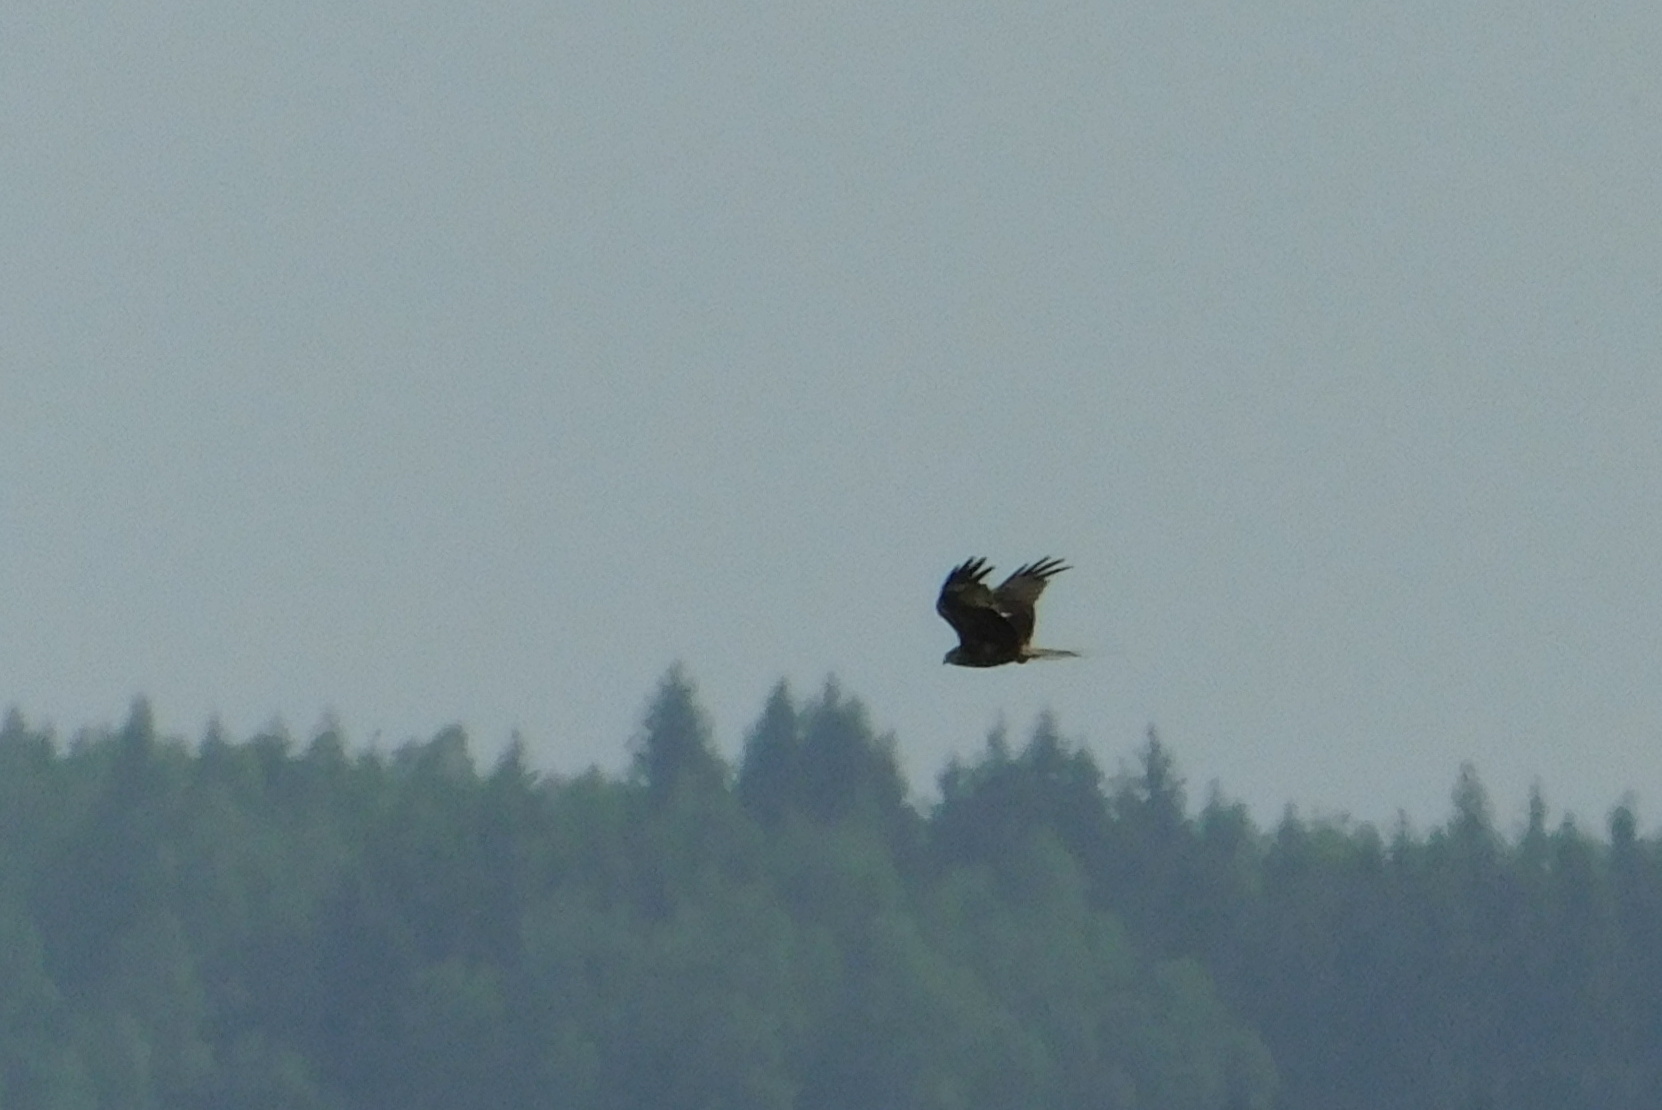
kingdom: Animalia
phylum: Chordata
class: Aves
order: Accipitriformes
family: Accipitridae
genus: Circus
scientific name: Circus aeruginosus
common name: Western marsh harrier
